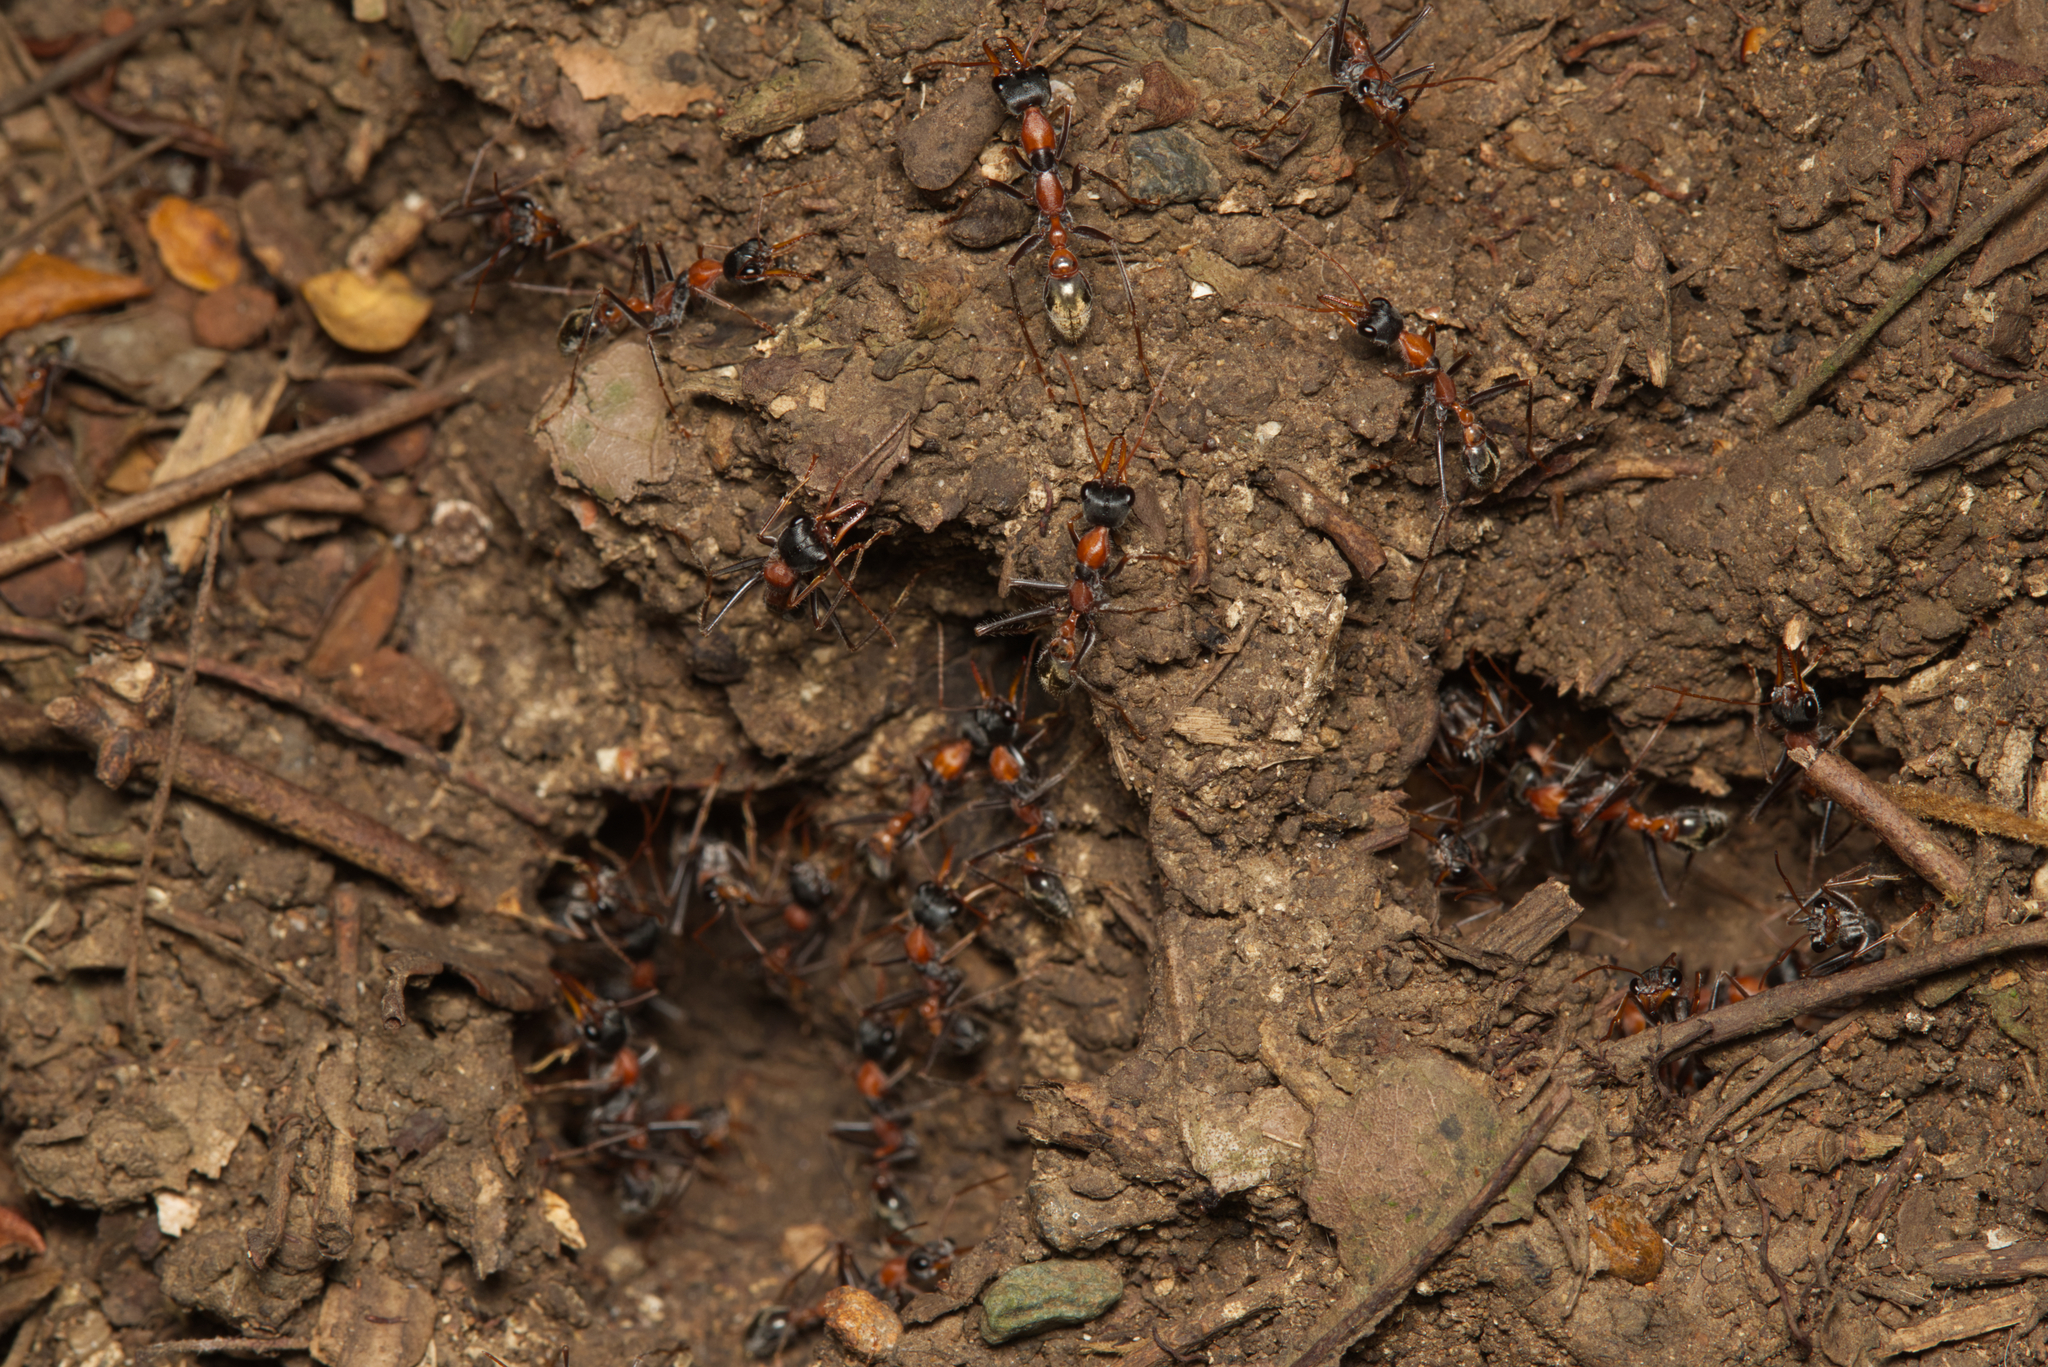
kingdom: Animalia
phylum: Arthropoda
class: Insecta
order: Hymenoptera
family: Formicidae
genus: Myrmecia
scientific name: Myrmecia nigrocincta
